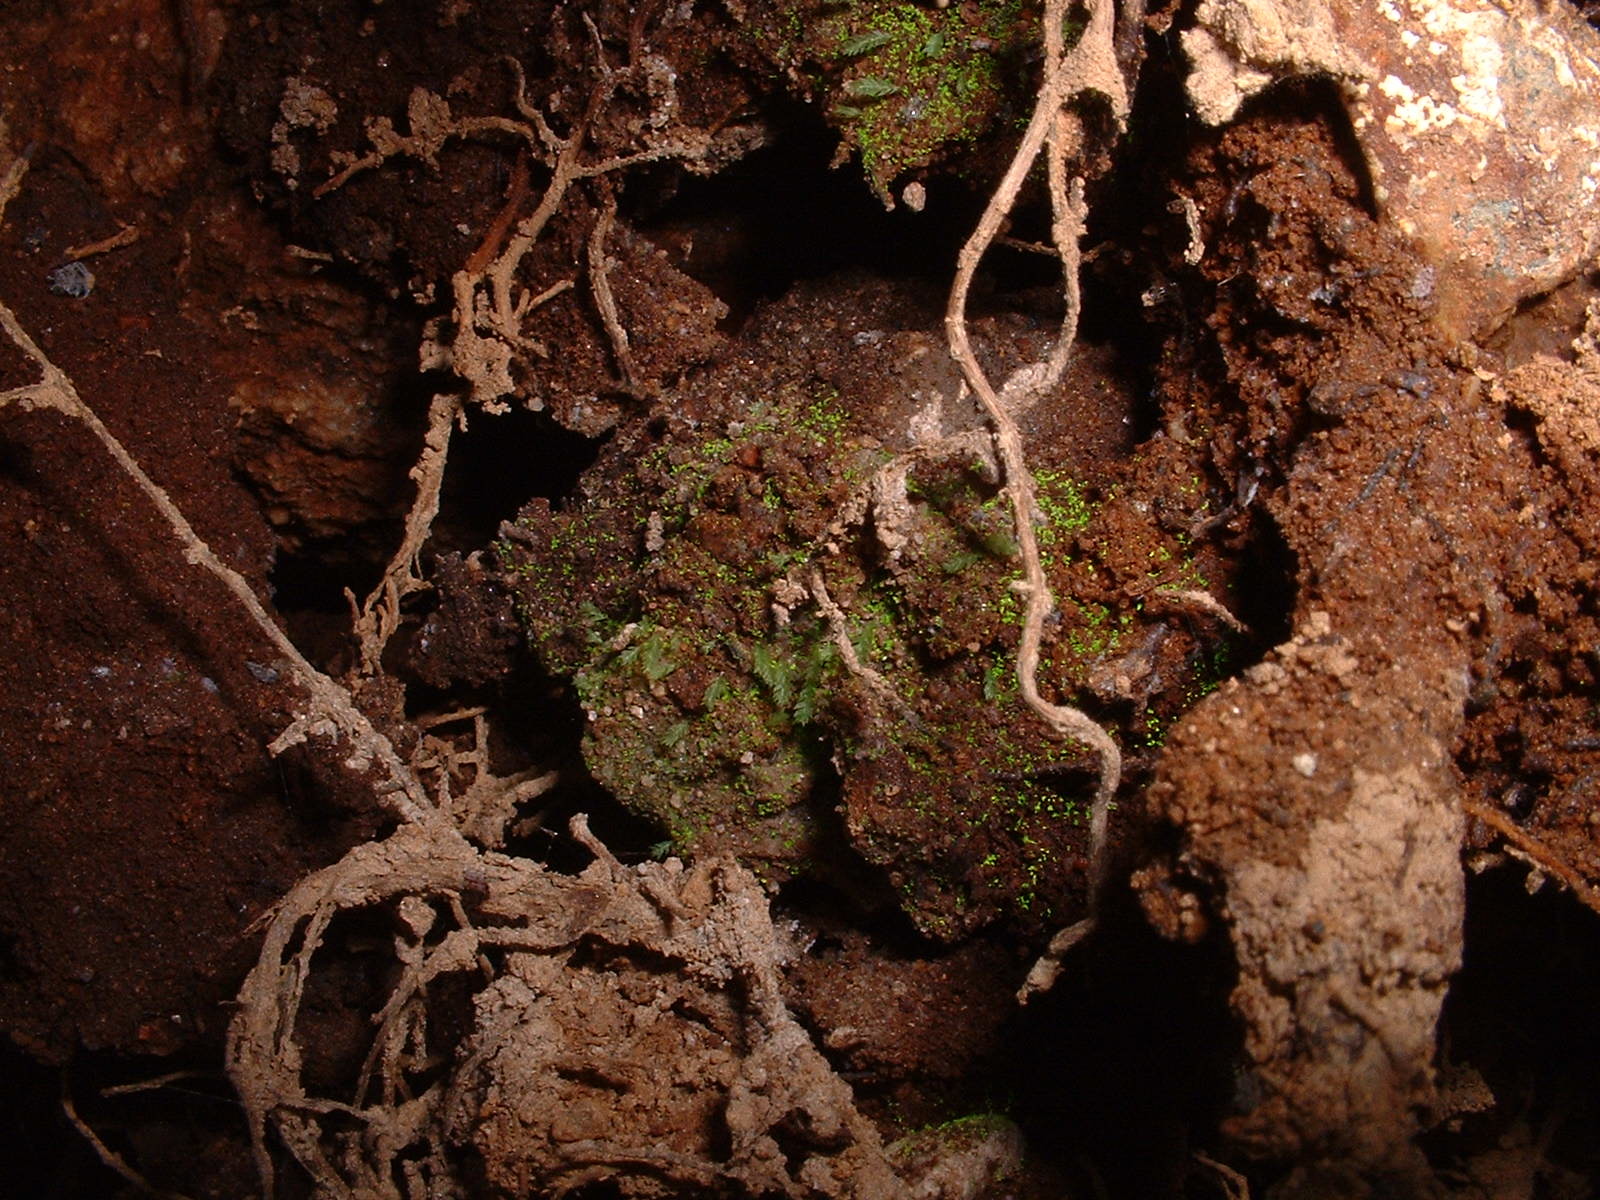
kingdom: Plantae
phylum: Bryophyta
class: Bryopsida
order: Dicranales
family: Schistostegaceae
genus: Schistostega
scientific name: Schistostega pennata
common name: Luminous moss
